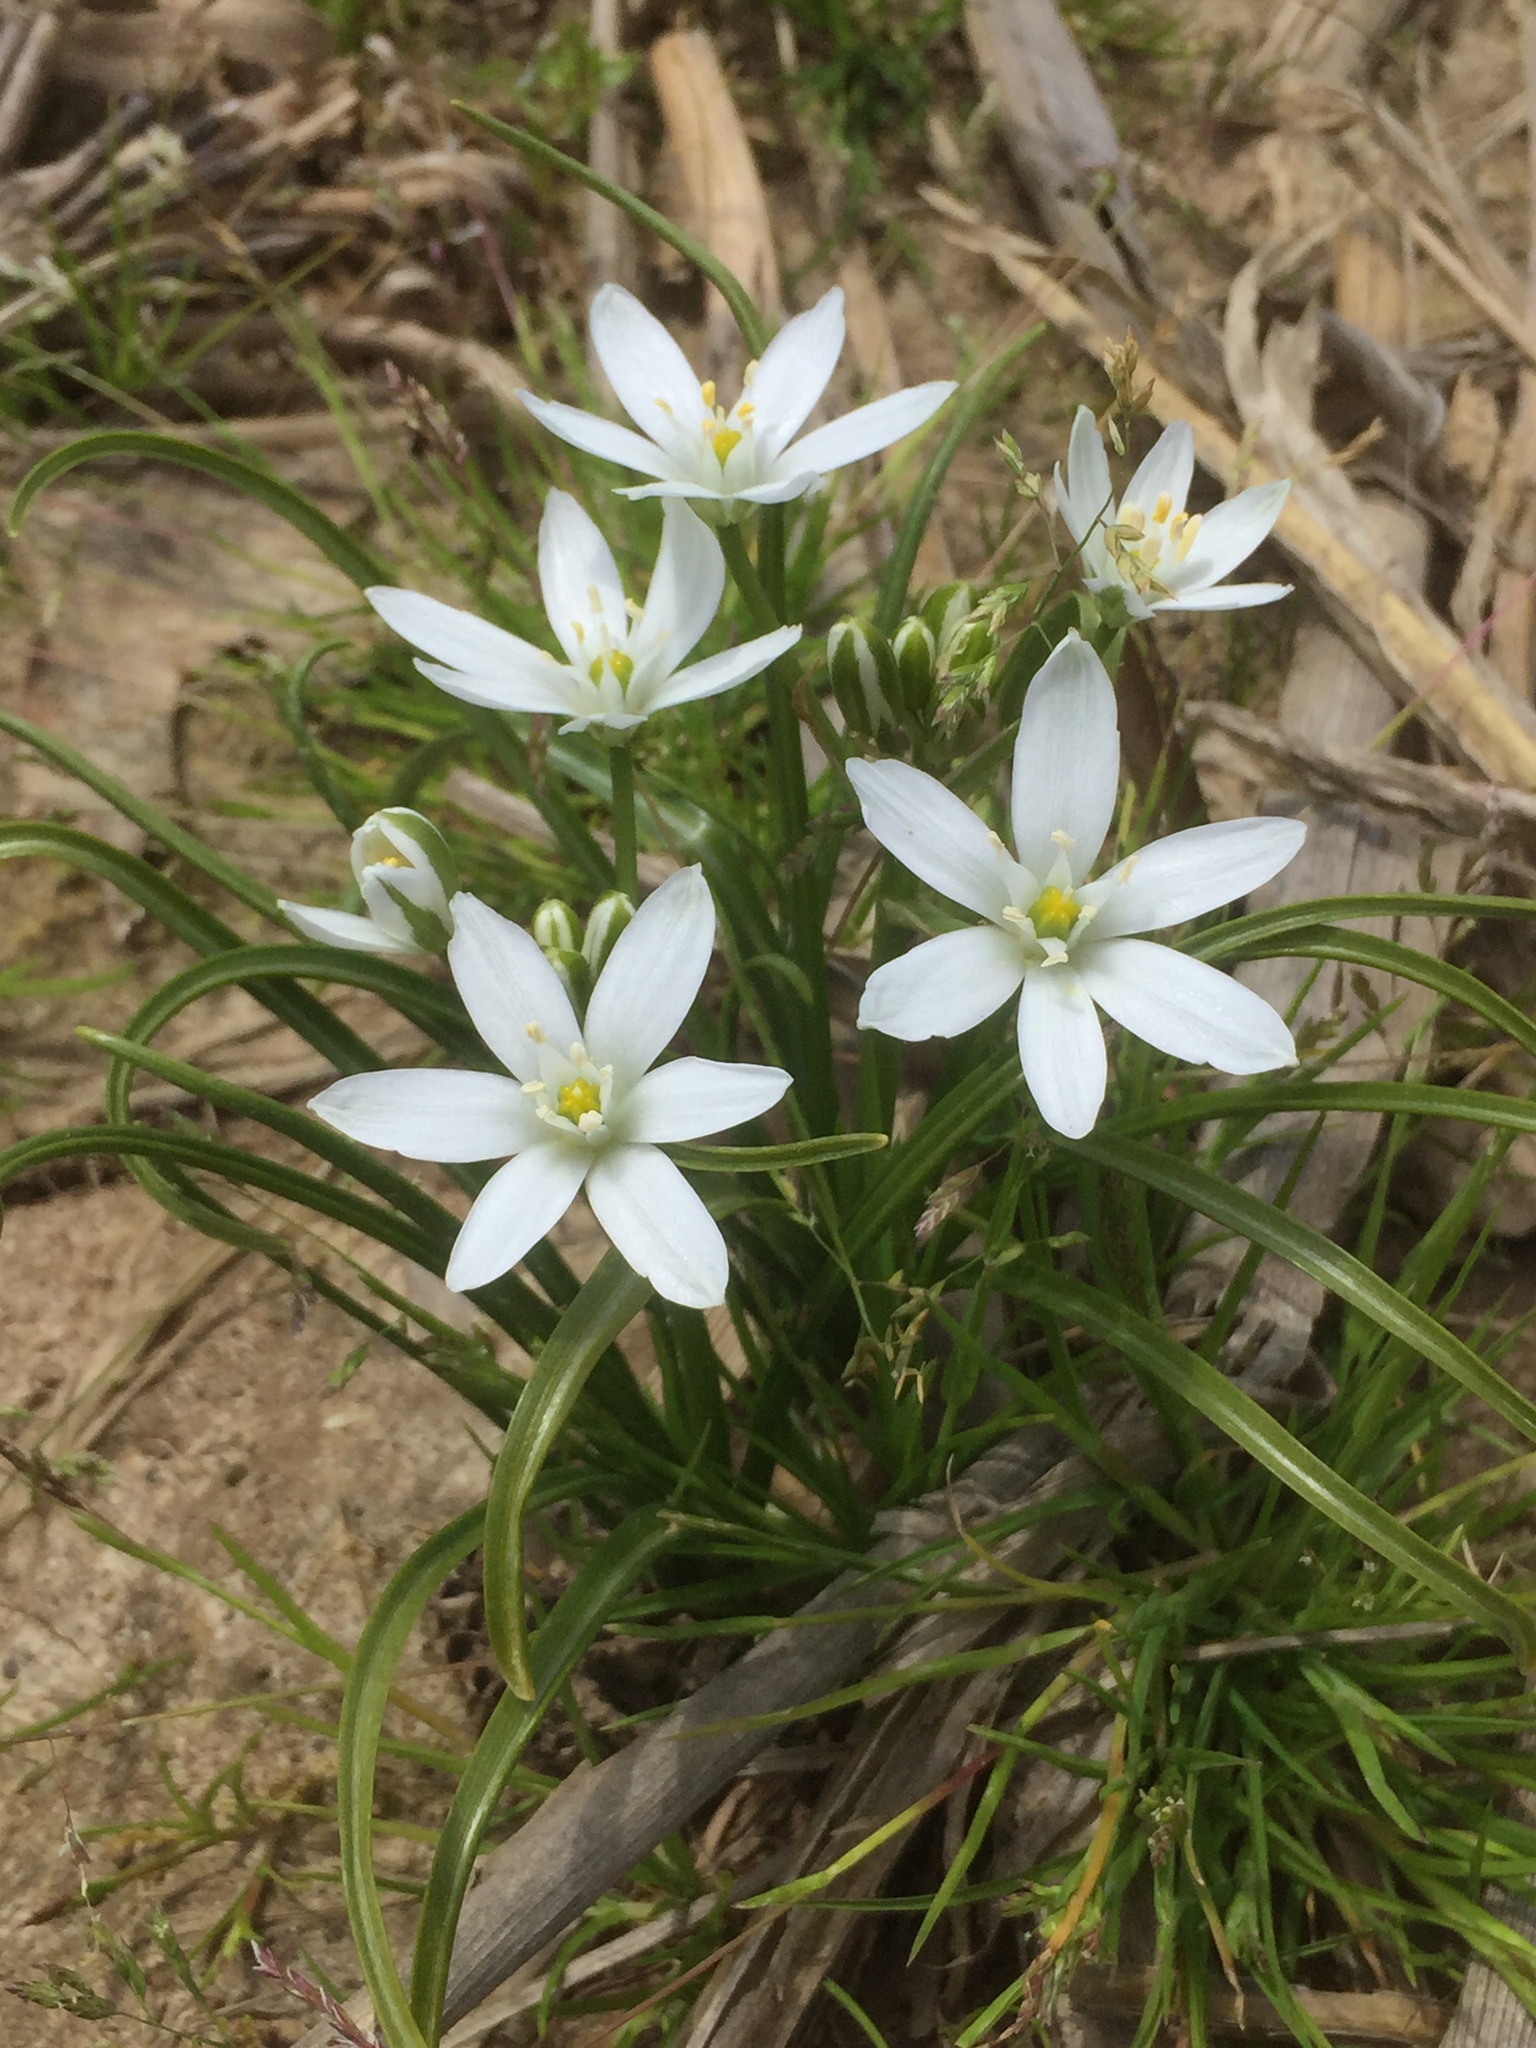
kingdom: Plantae
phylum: Tracheophyta
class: Liliopsida
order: Asparagales
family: Asparagaceae
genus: Ornithogalum
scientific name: Ornithogalum umbellatum
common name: Garden star-of-bethlehem
